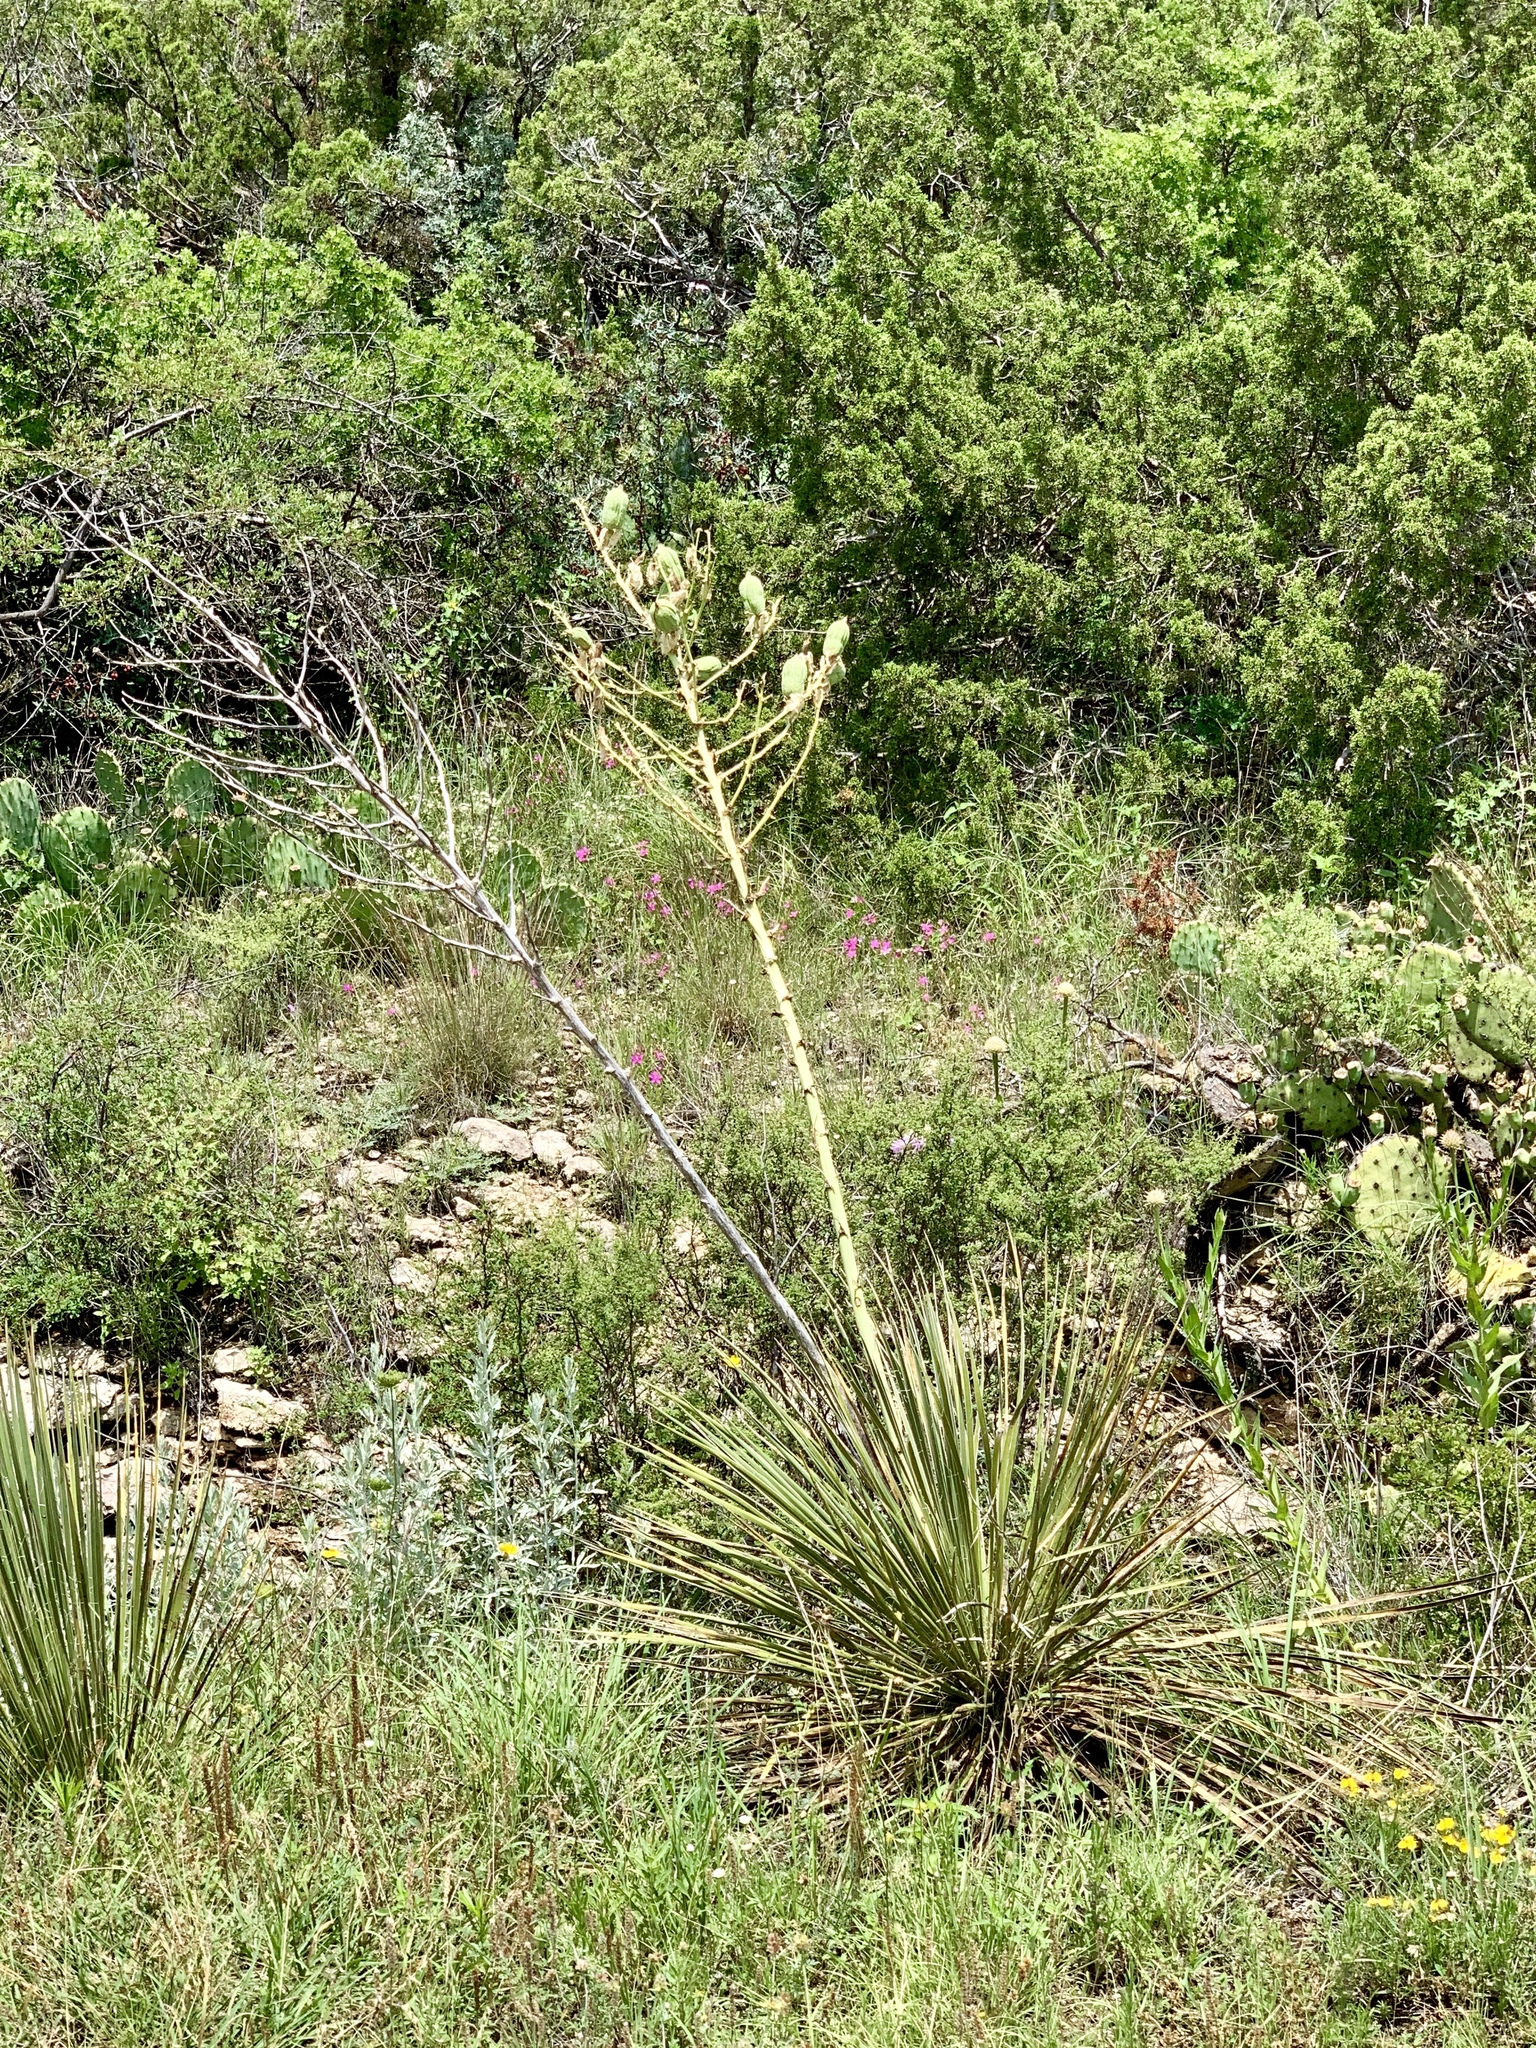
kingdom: Plantae
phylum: Tracheophyta
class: Liliopsida
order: Asparagales
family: Asparagaceae
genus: Yucca
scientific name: Yucca campestris
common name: Plains yucca
